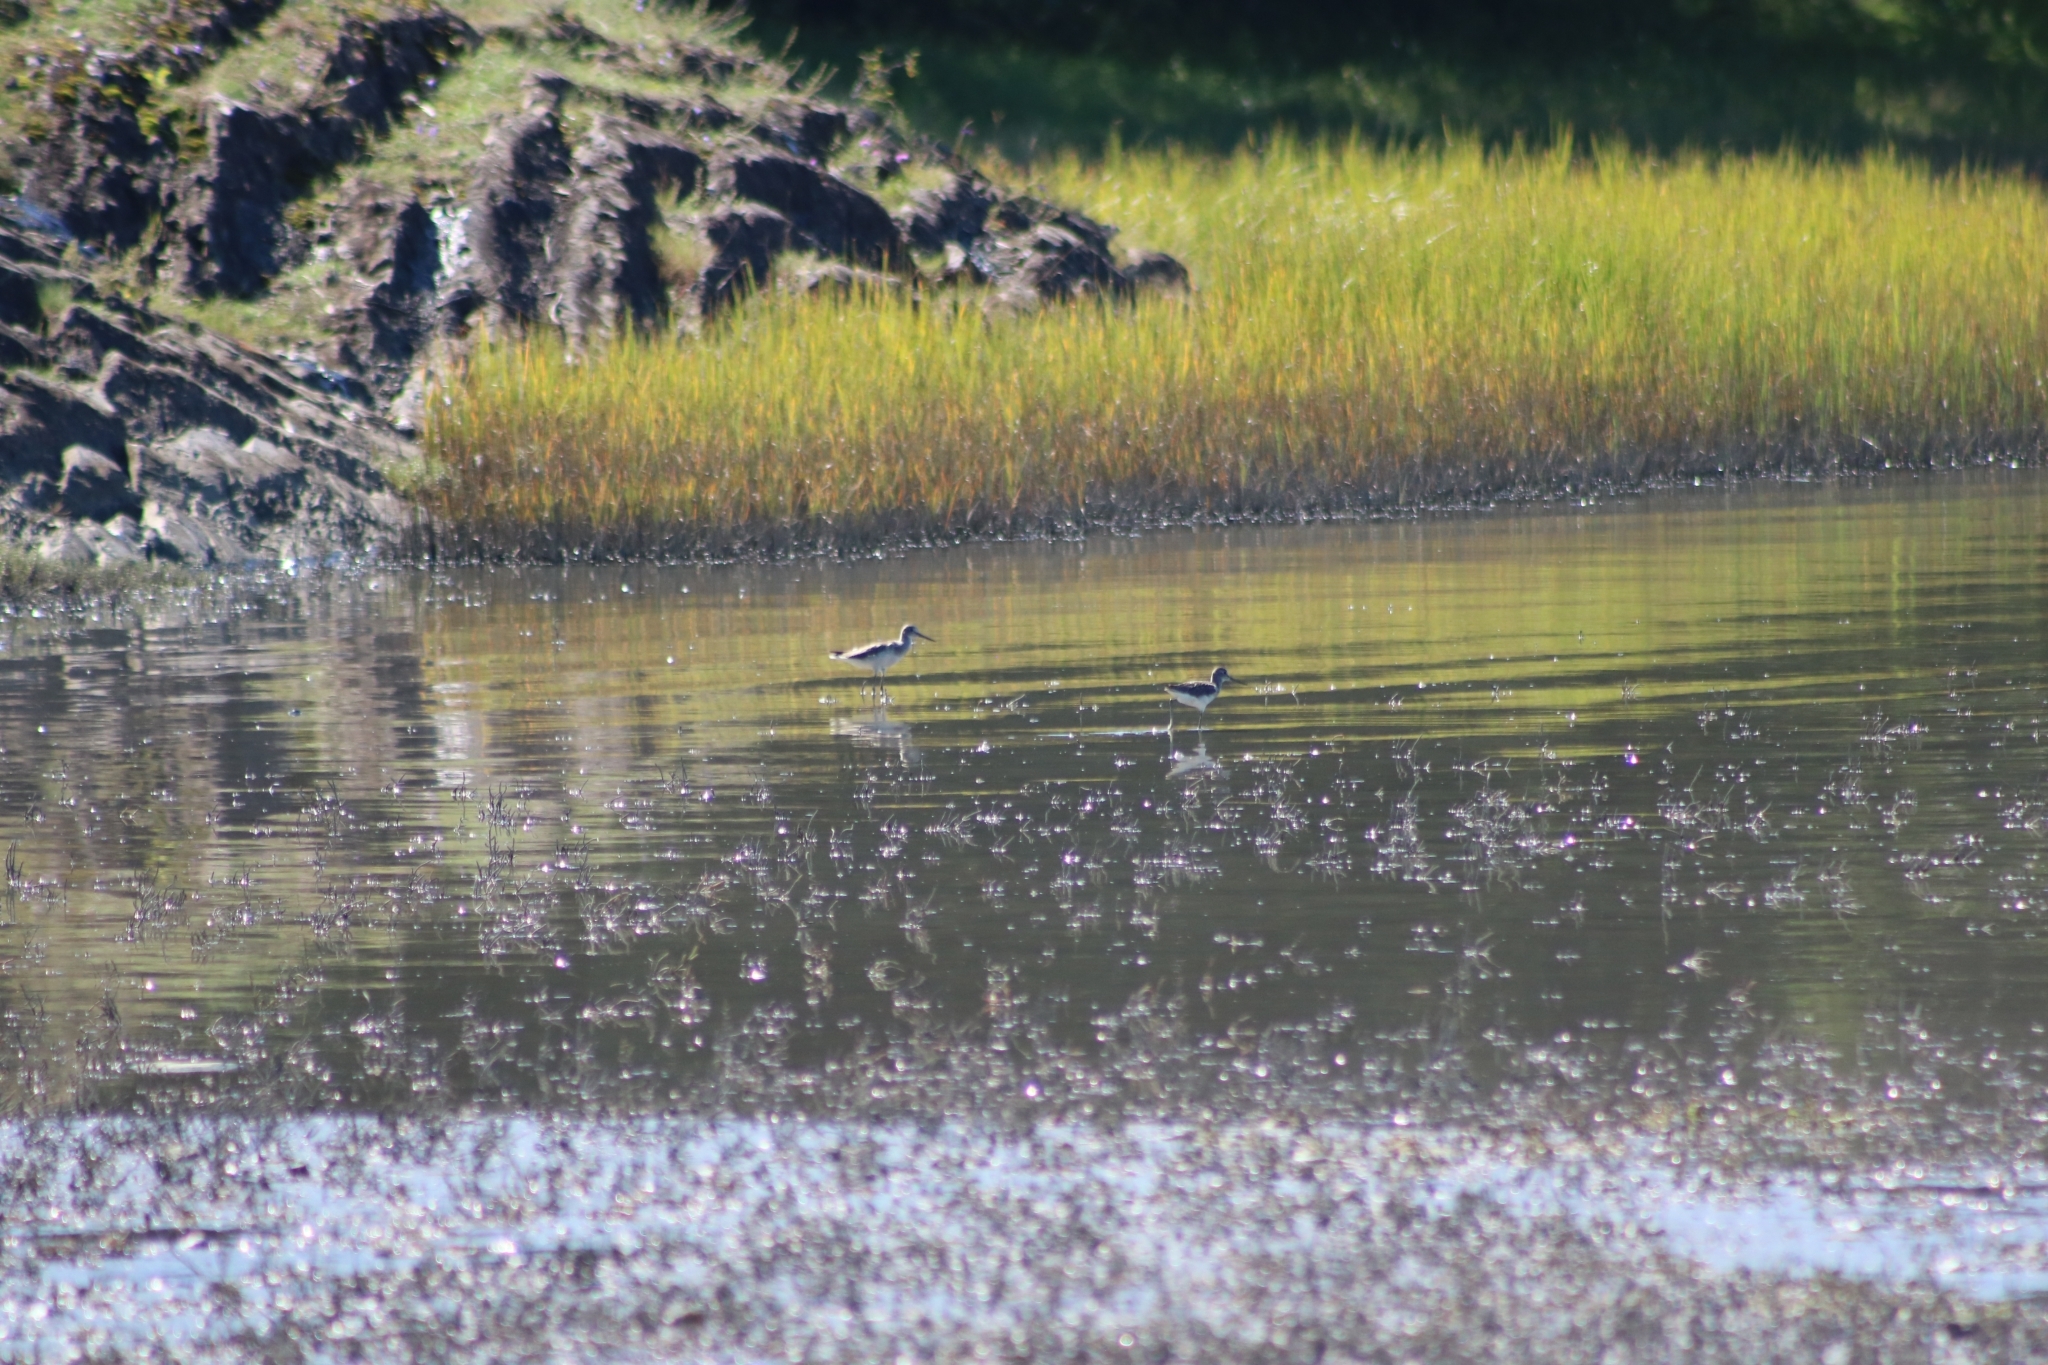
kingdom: Animalia
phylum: Chordata
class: Aves
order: Charadriiformes
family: Scolopacidae
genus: Tringa
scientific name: Tringa nebularia
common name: Common greenshank
